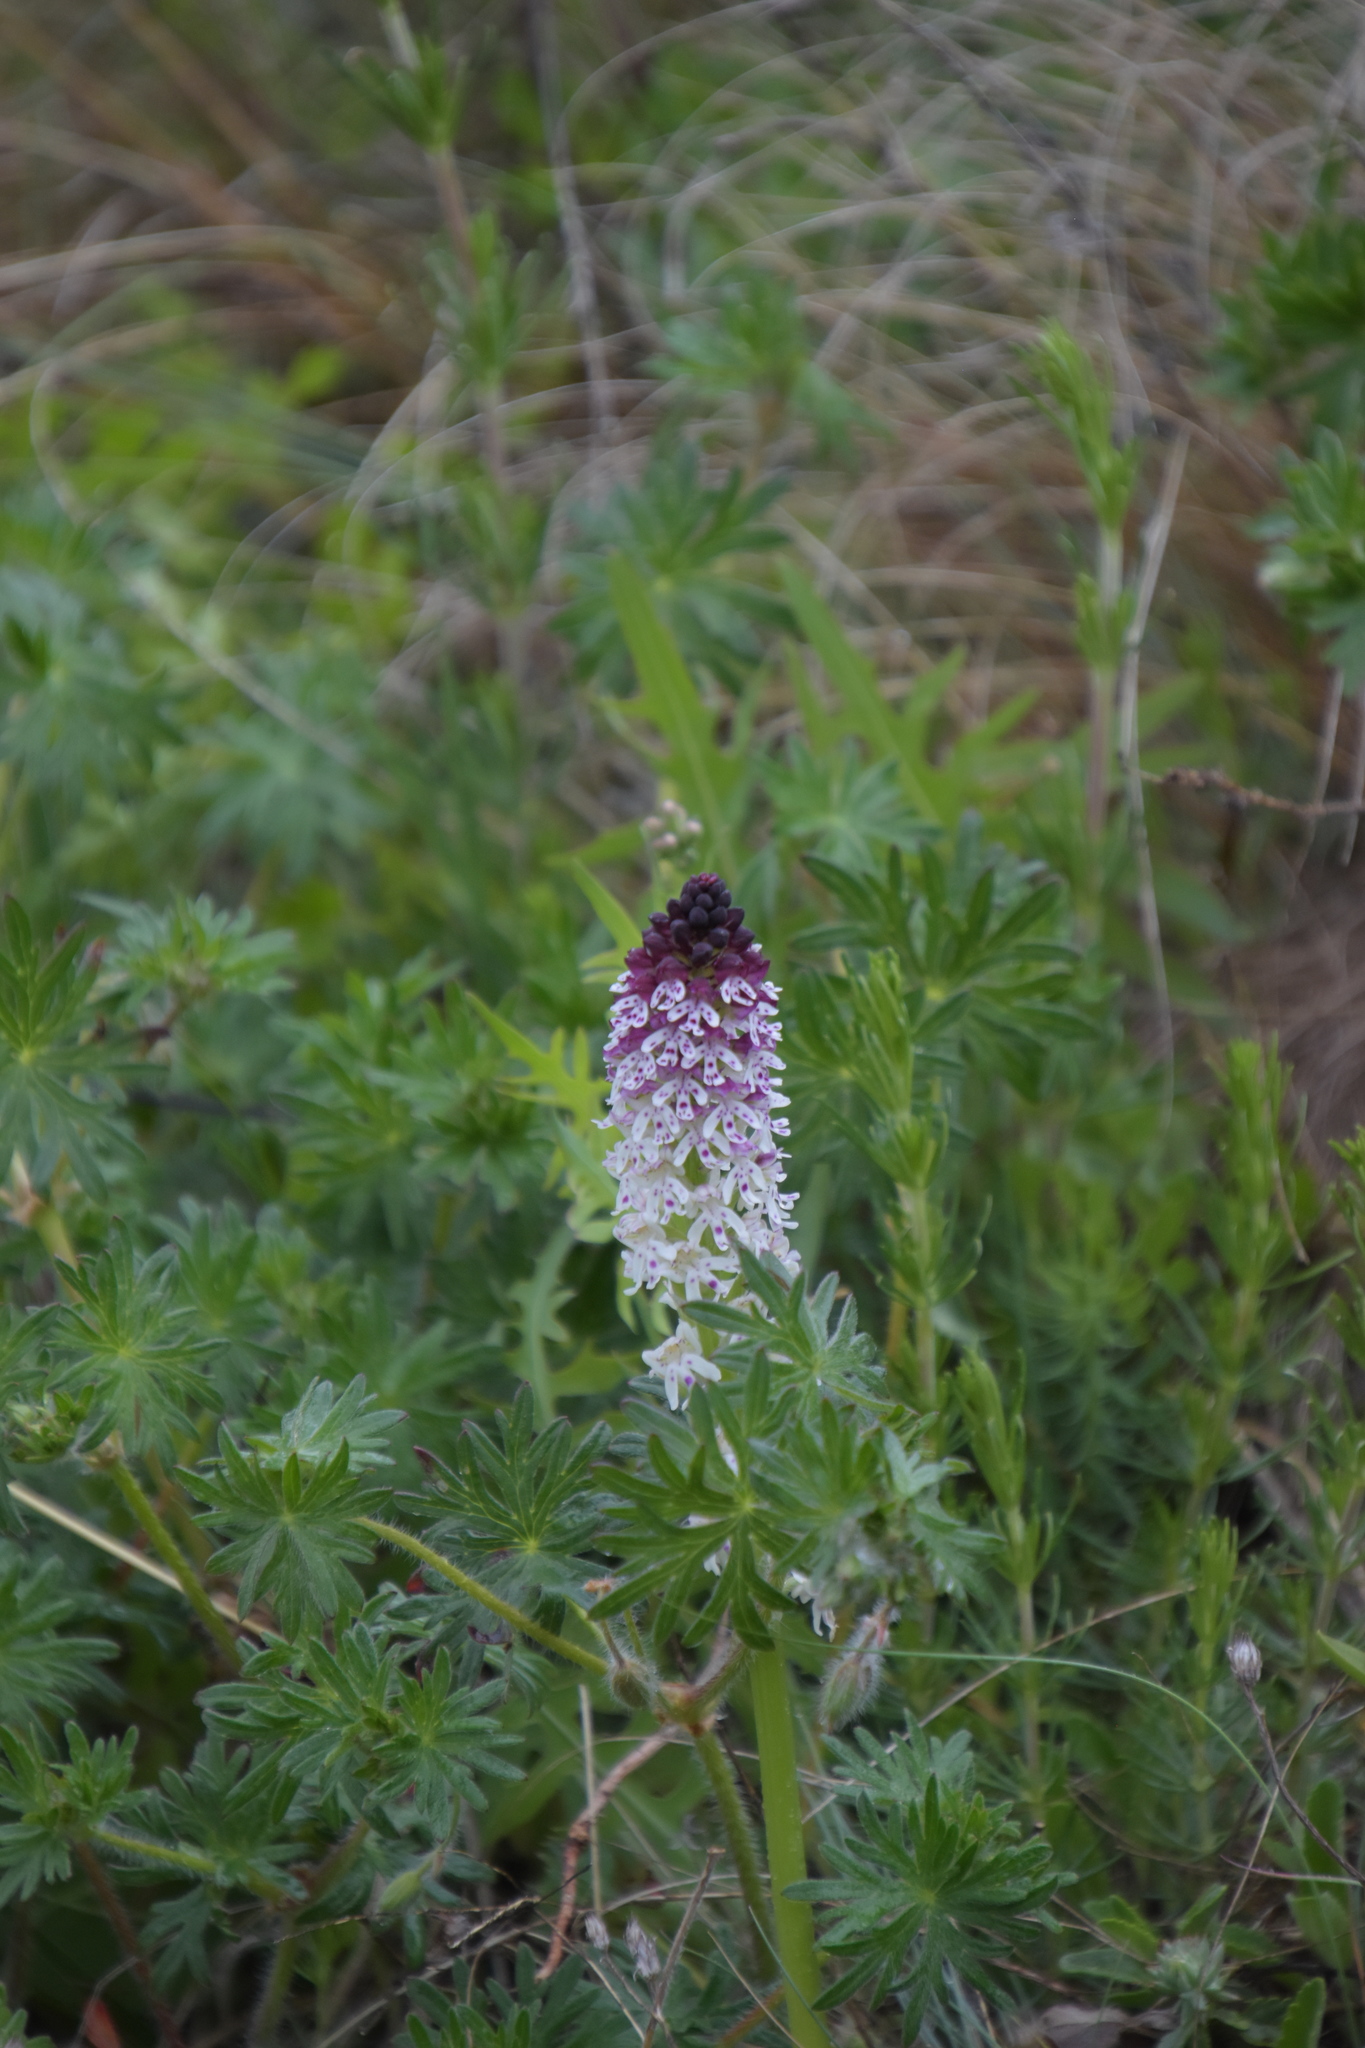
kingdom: Plantae
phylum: Tracheophyta
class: Liliopsida
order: Asparagales
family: Orchidaceae
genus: Neotinea
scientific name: Neotinea ustulata
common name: Burnt orchid
